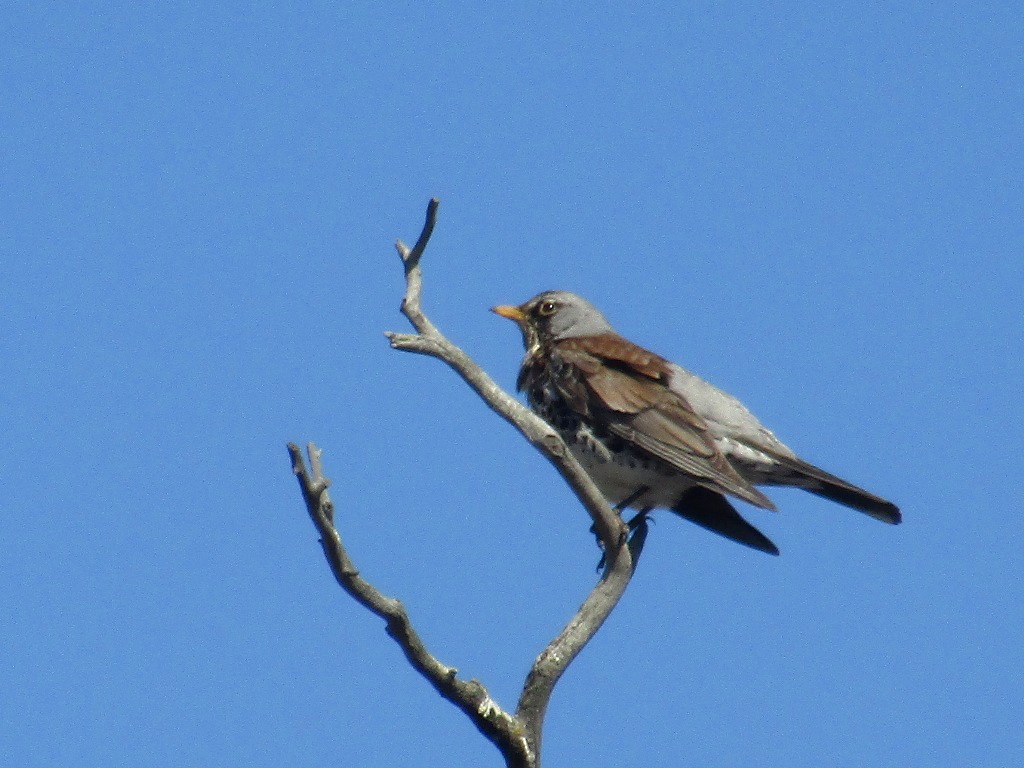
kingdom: Animalia
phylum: Chordata
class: Aves
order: Passeriformes
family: Turdidae
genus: Turdus
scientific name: Turdus pilaris
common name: Fieldfare
